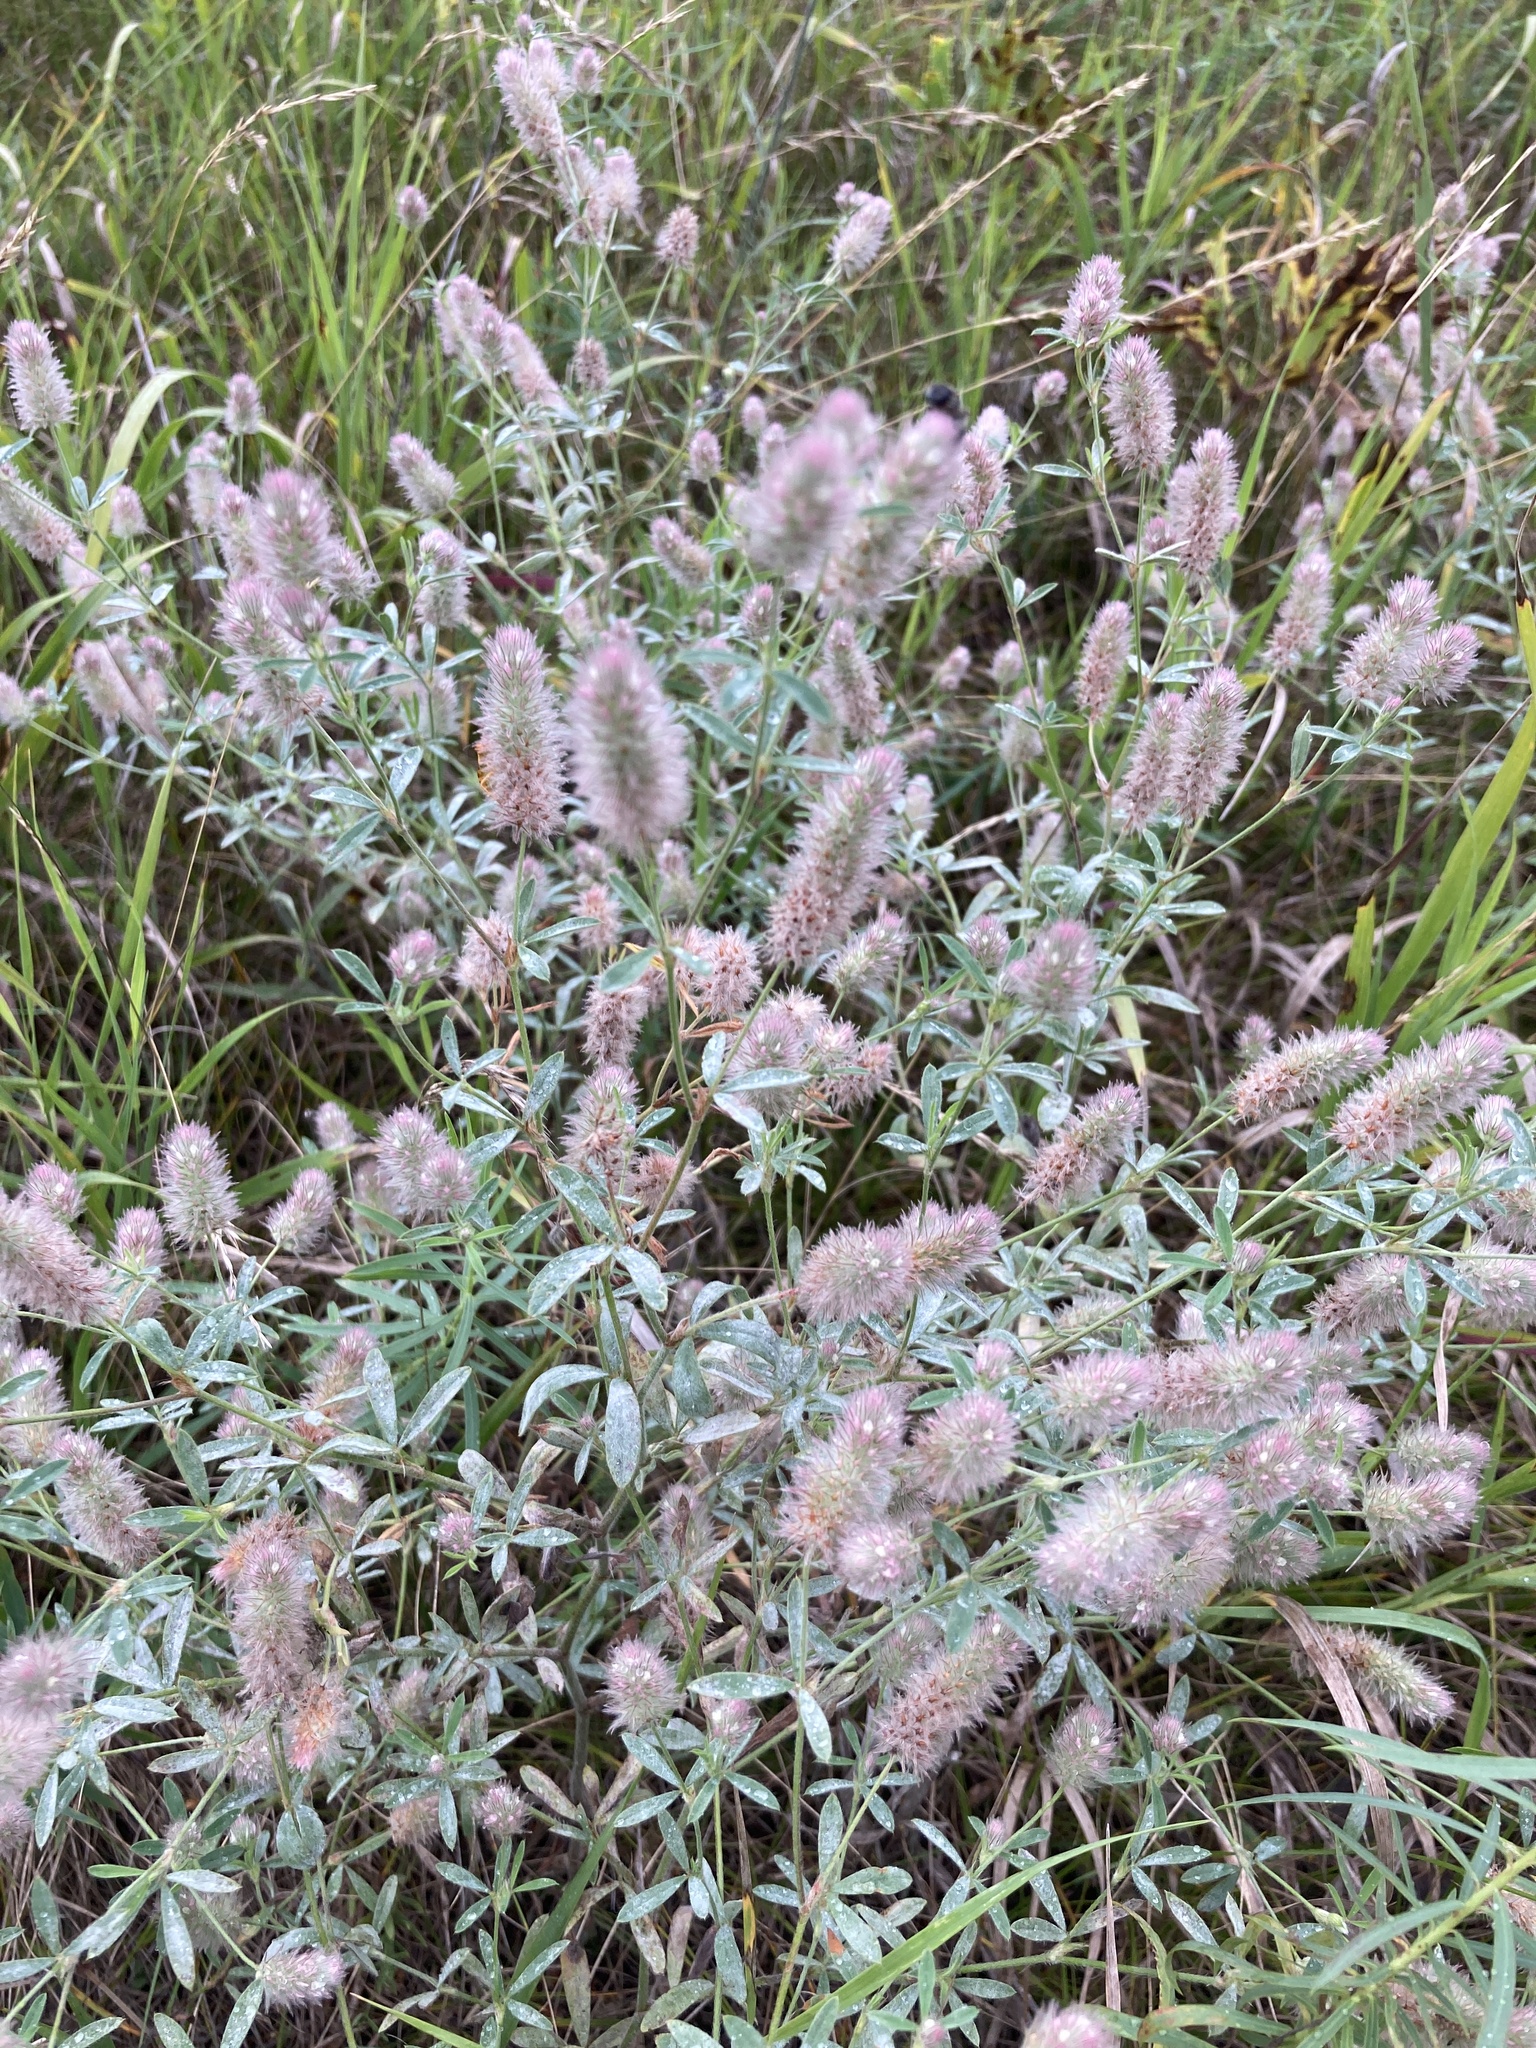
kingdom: Plantae
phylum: Tracheophyta
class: Magnoliopsida
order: Fabales
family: Fabaceae
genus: Trifolium
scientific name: Trifolium arvense
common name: Hare's-foot clover
